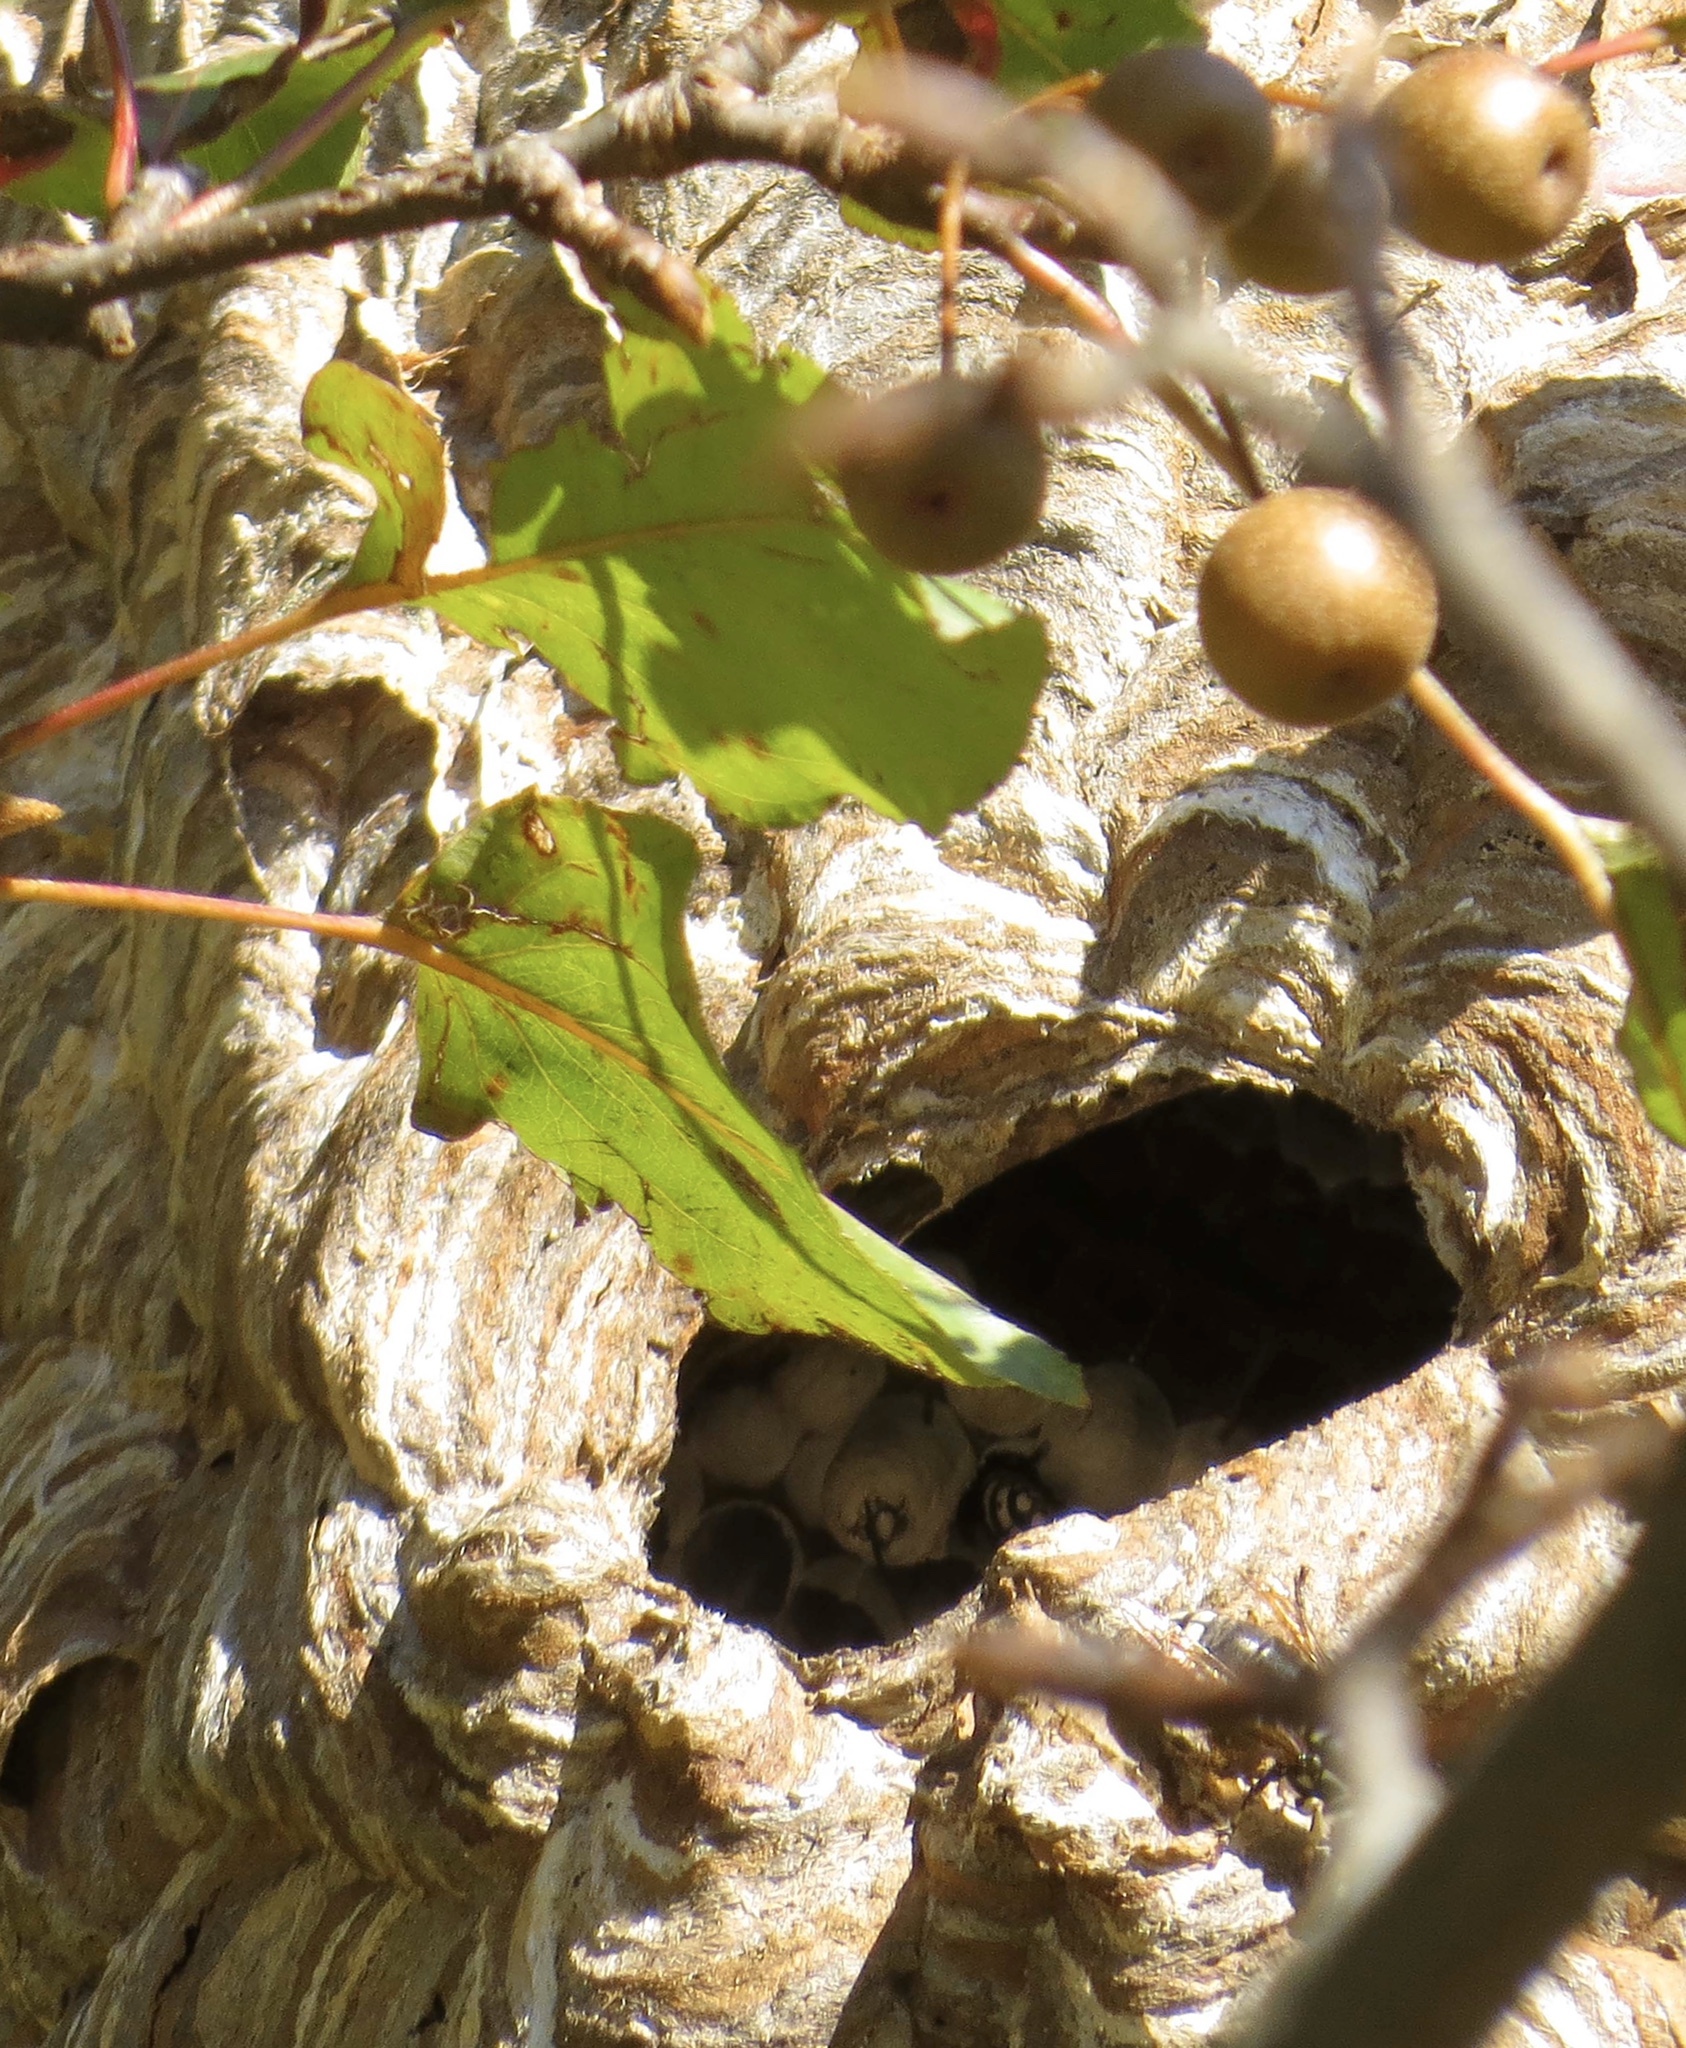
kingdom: Animalia
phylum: Arthropoda
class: Insecta
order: Hymenoptera
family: Vespidae
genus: Dolichovespula
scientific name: Dolichovespula maculata
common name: Bald-faced hornet
